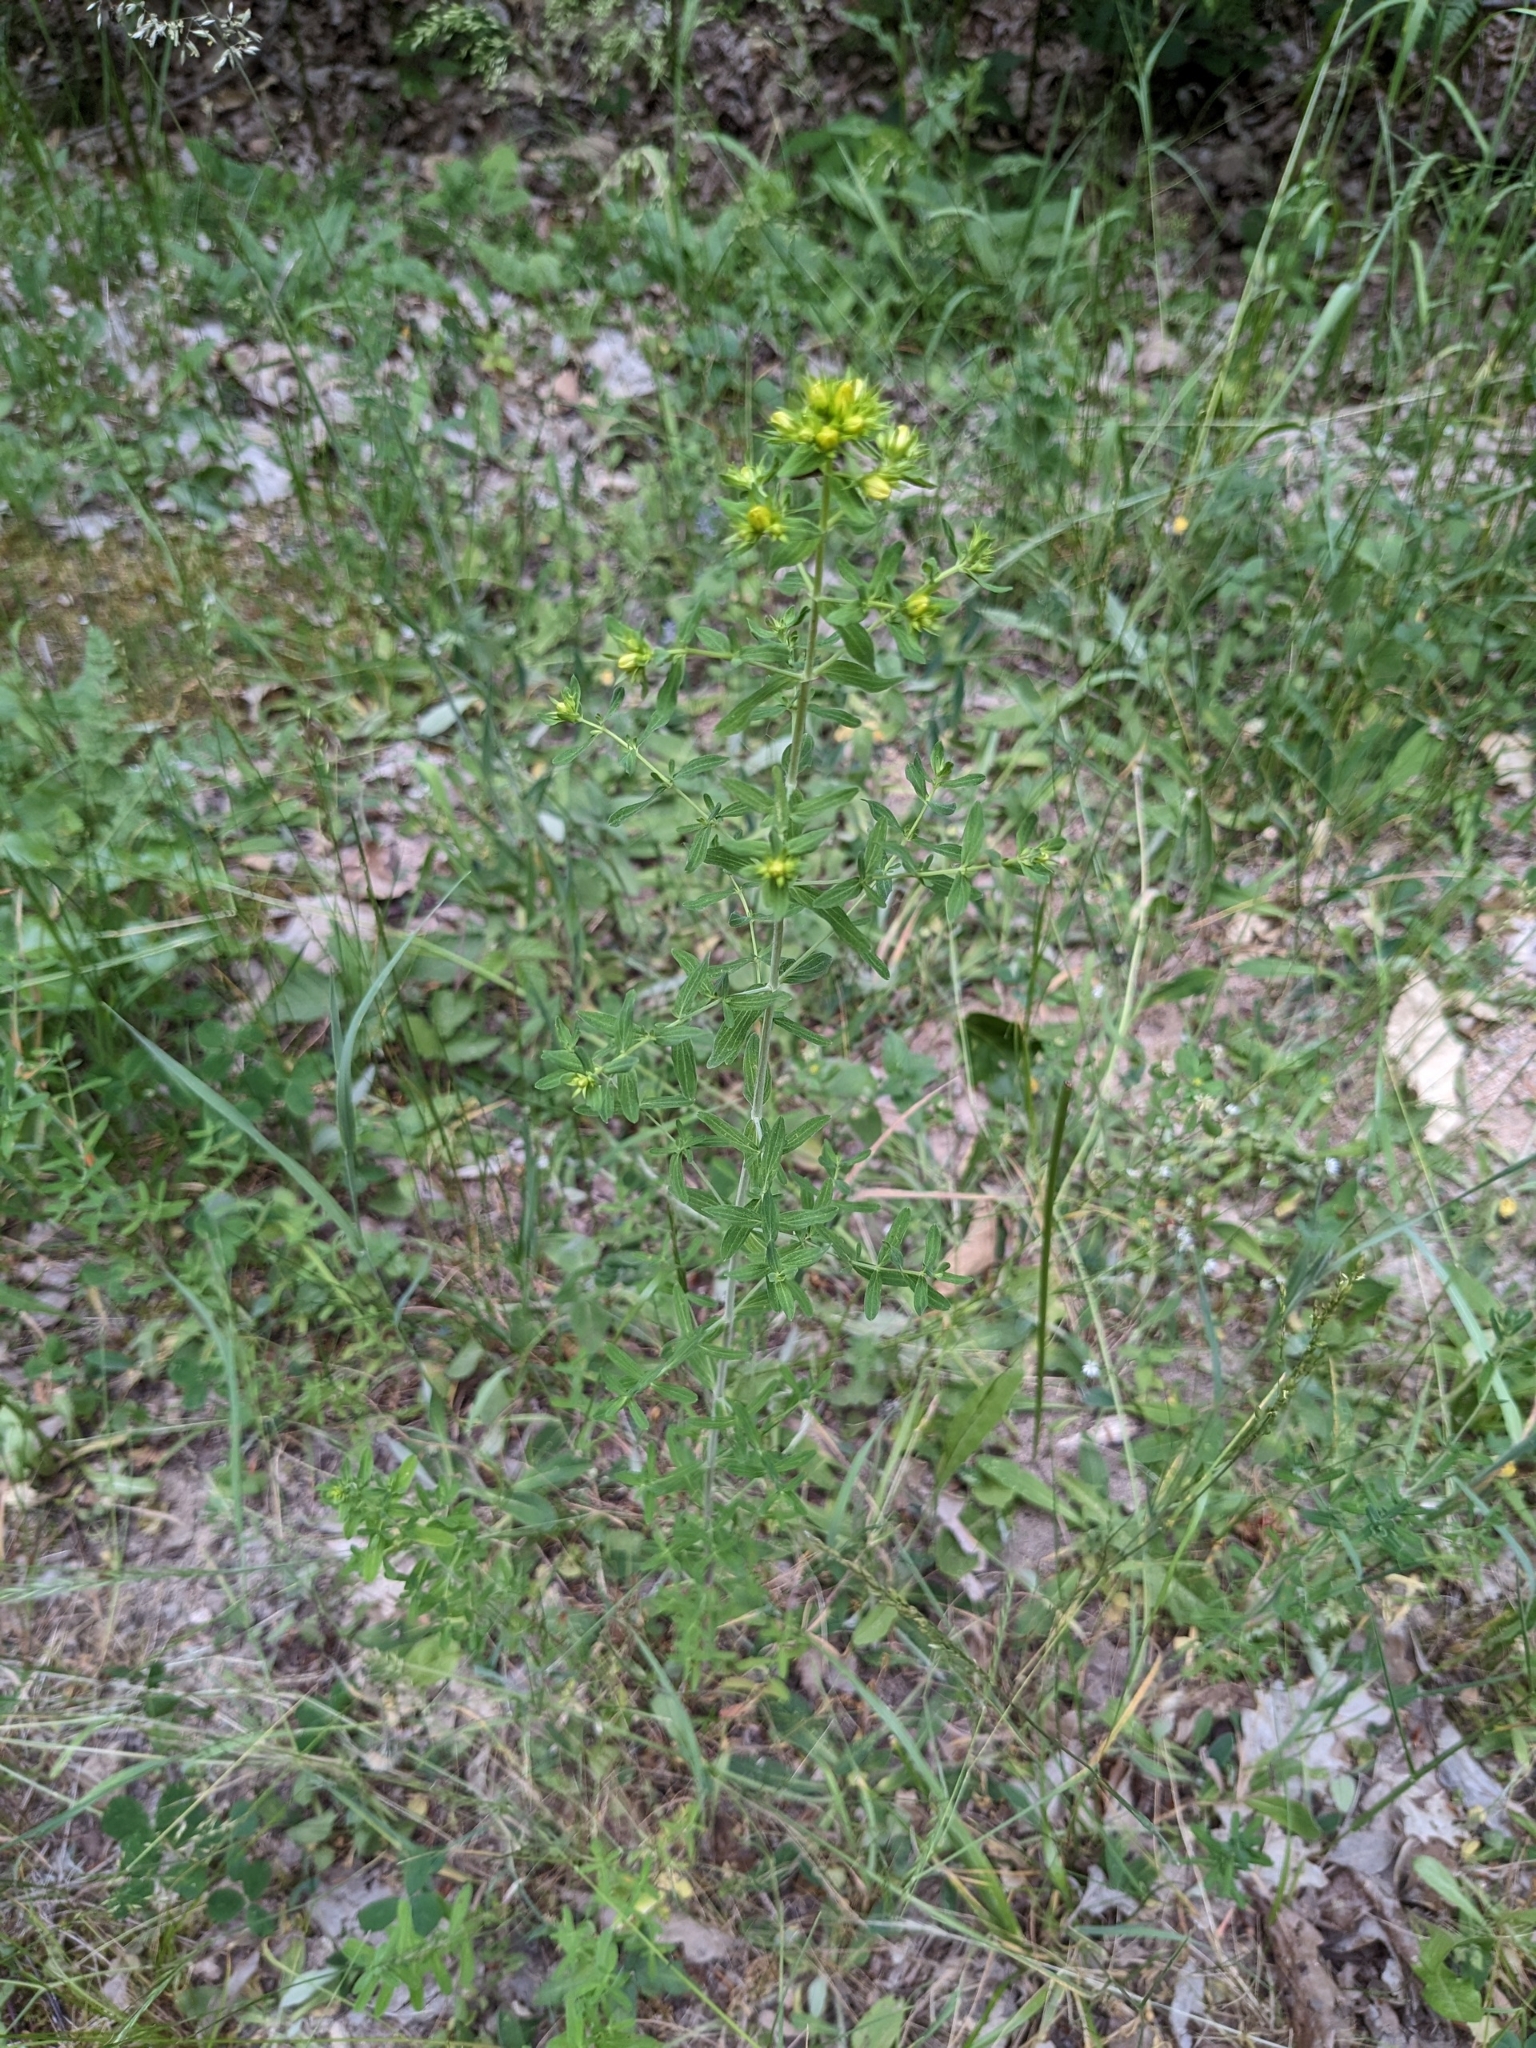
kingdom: Plantae
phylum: Tracheophyta
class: Magnoliopsida
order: Malpighiales
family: Hypericaceae
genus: Hypericum
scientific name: Hypericum perforatum
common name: Common st. johnswort
